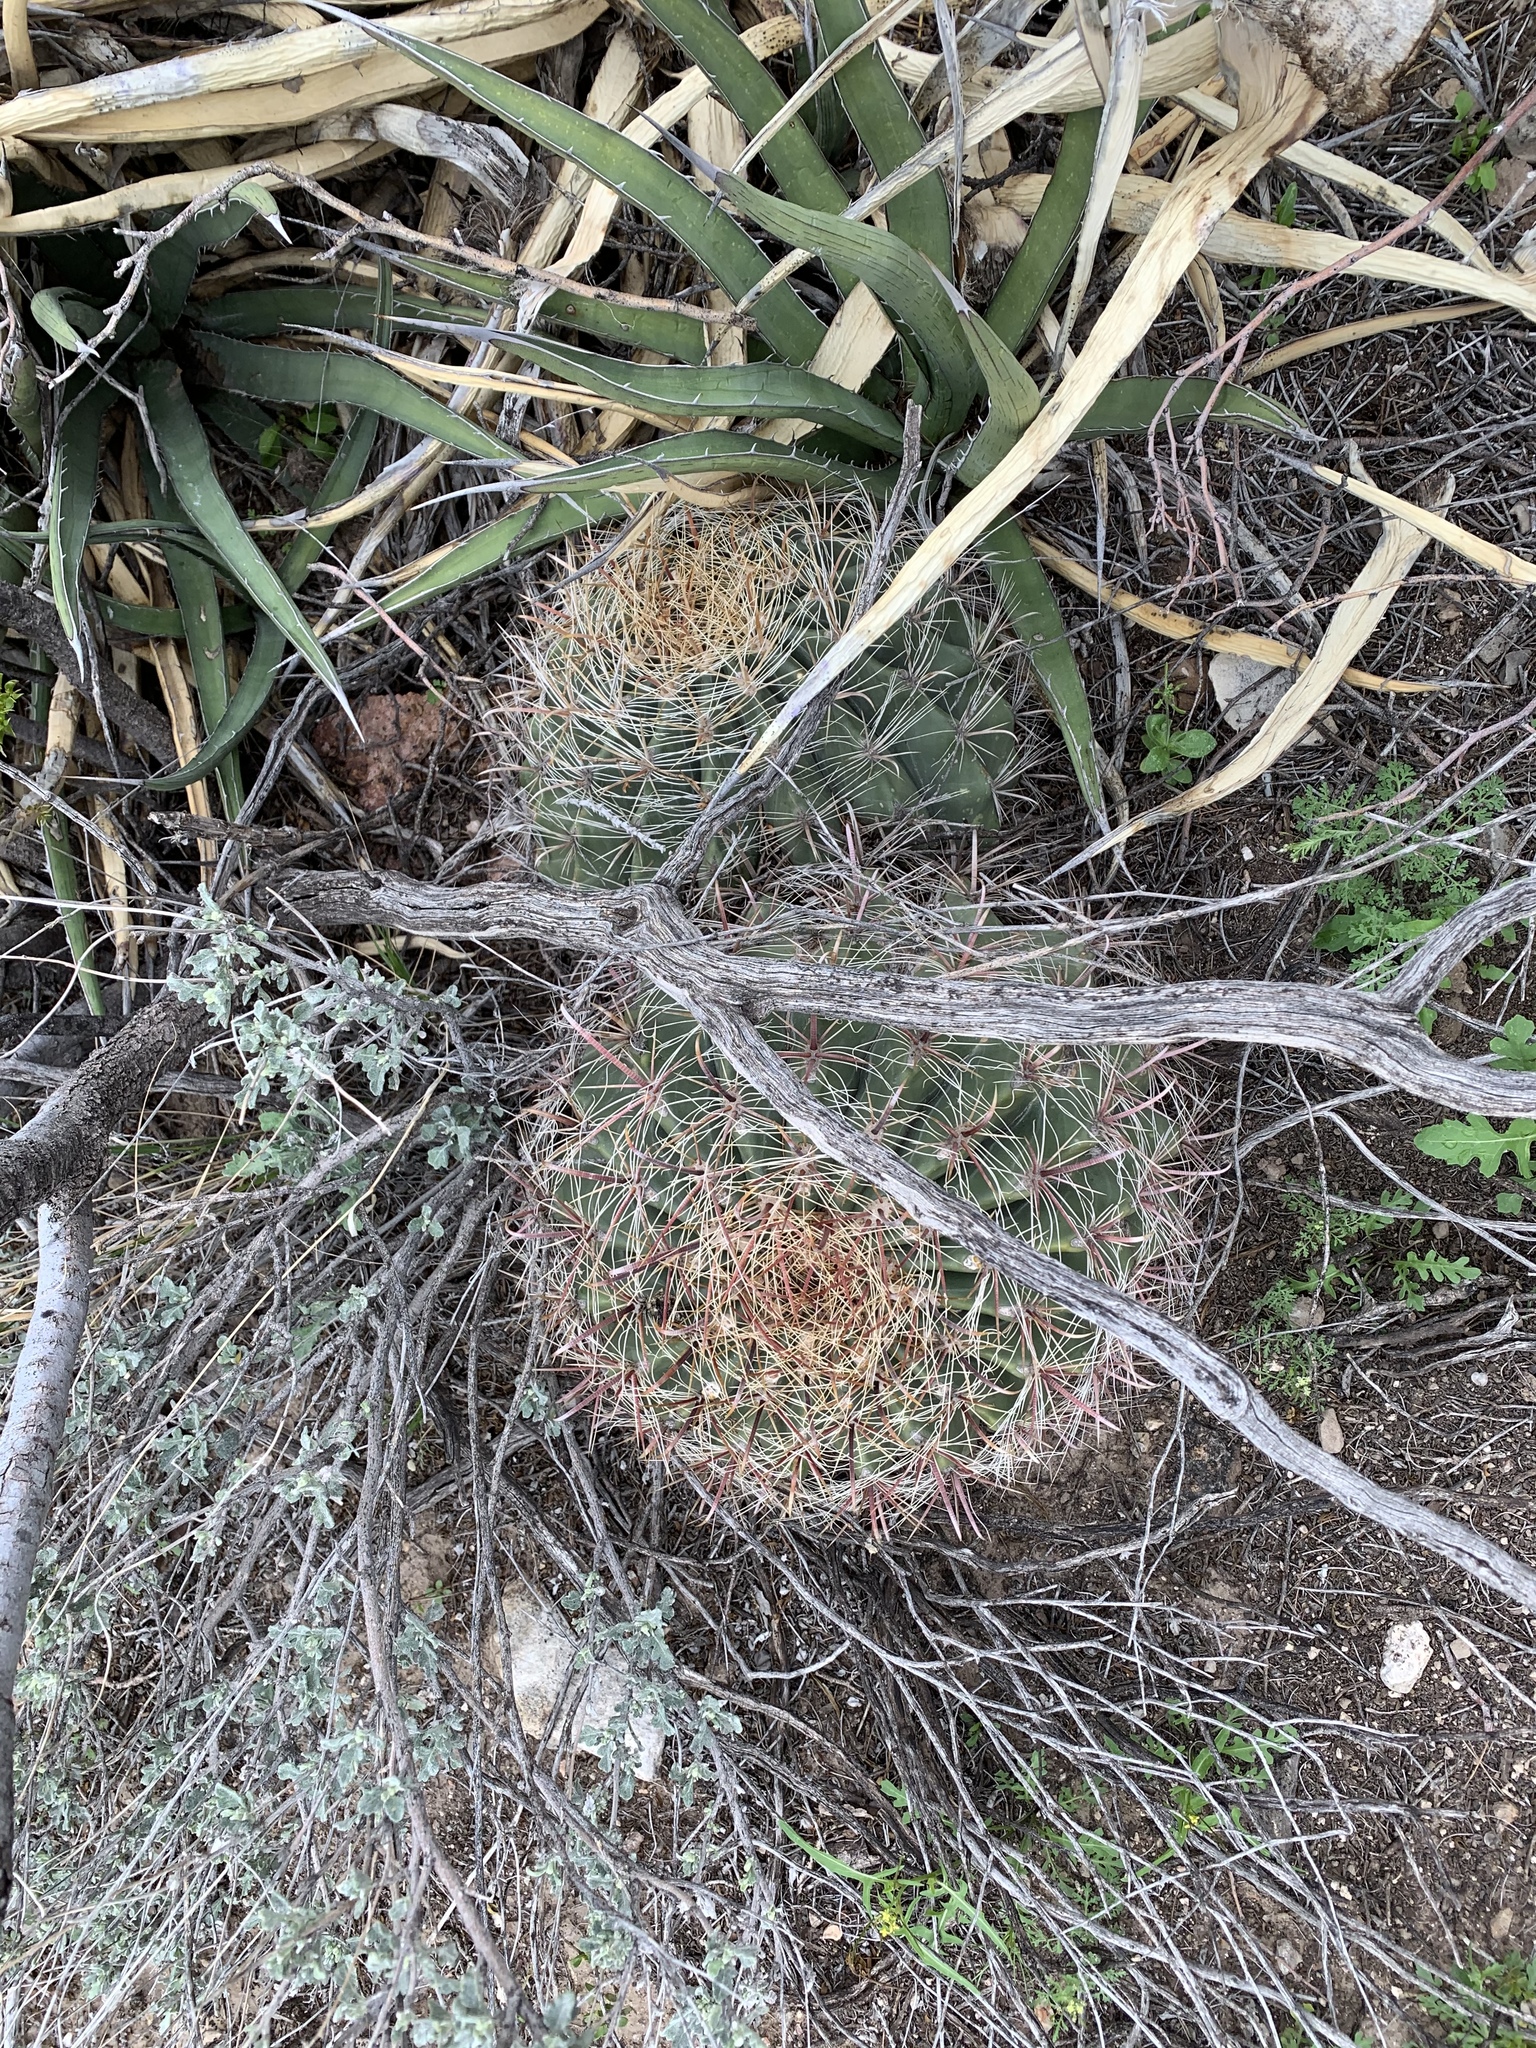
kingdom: Plantae
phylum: Tracheophyta
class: Magnoliopsida
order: Caryophyllales
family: Cactaceae
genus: Ferocactus
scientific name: Ferocactus wislizeni
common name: Candy barrel cactus
